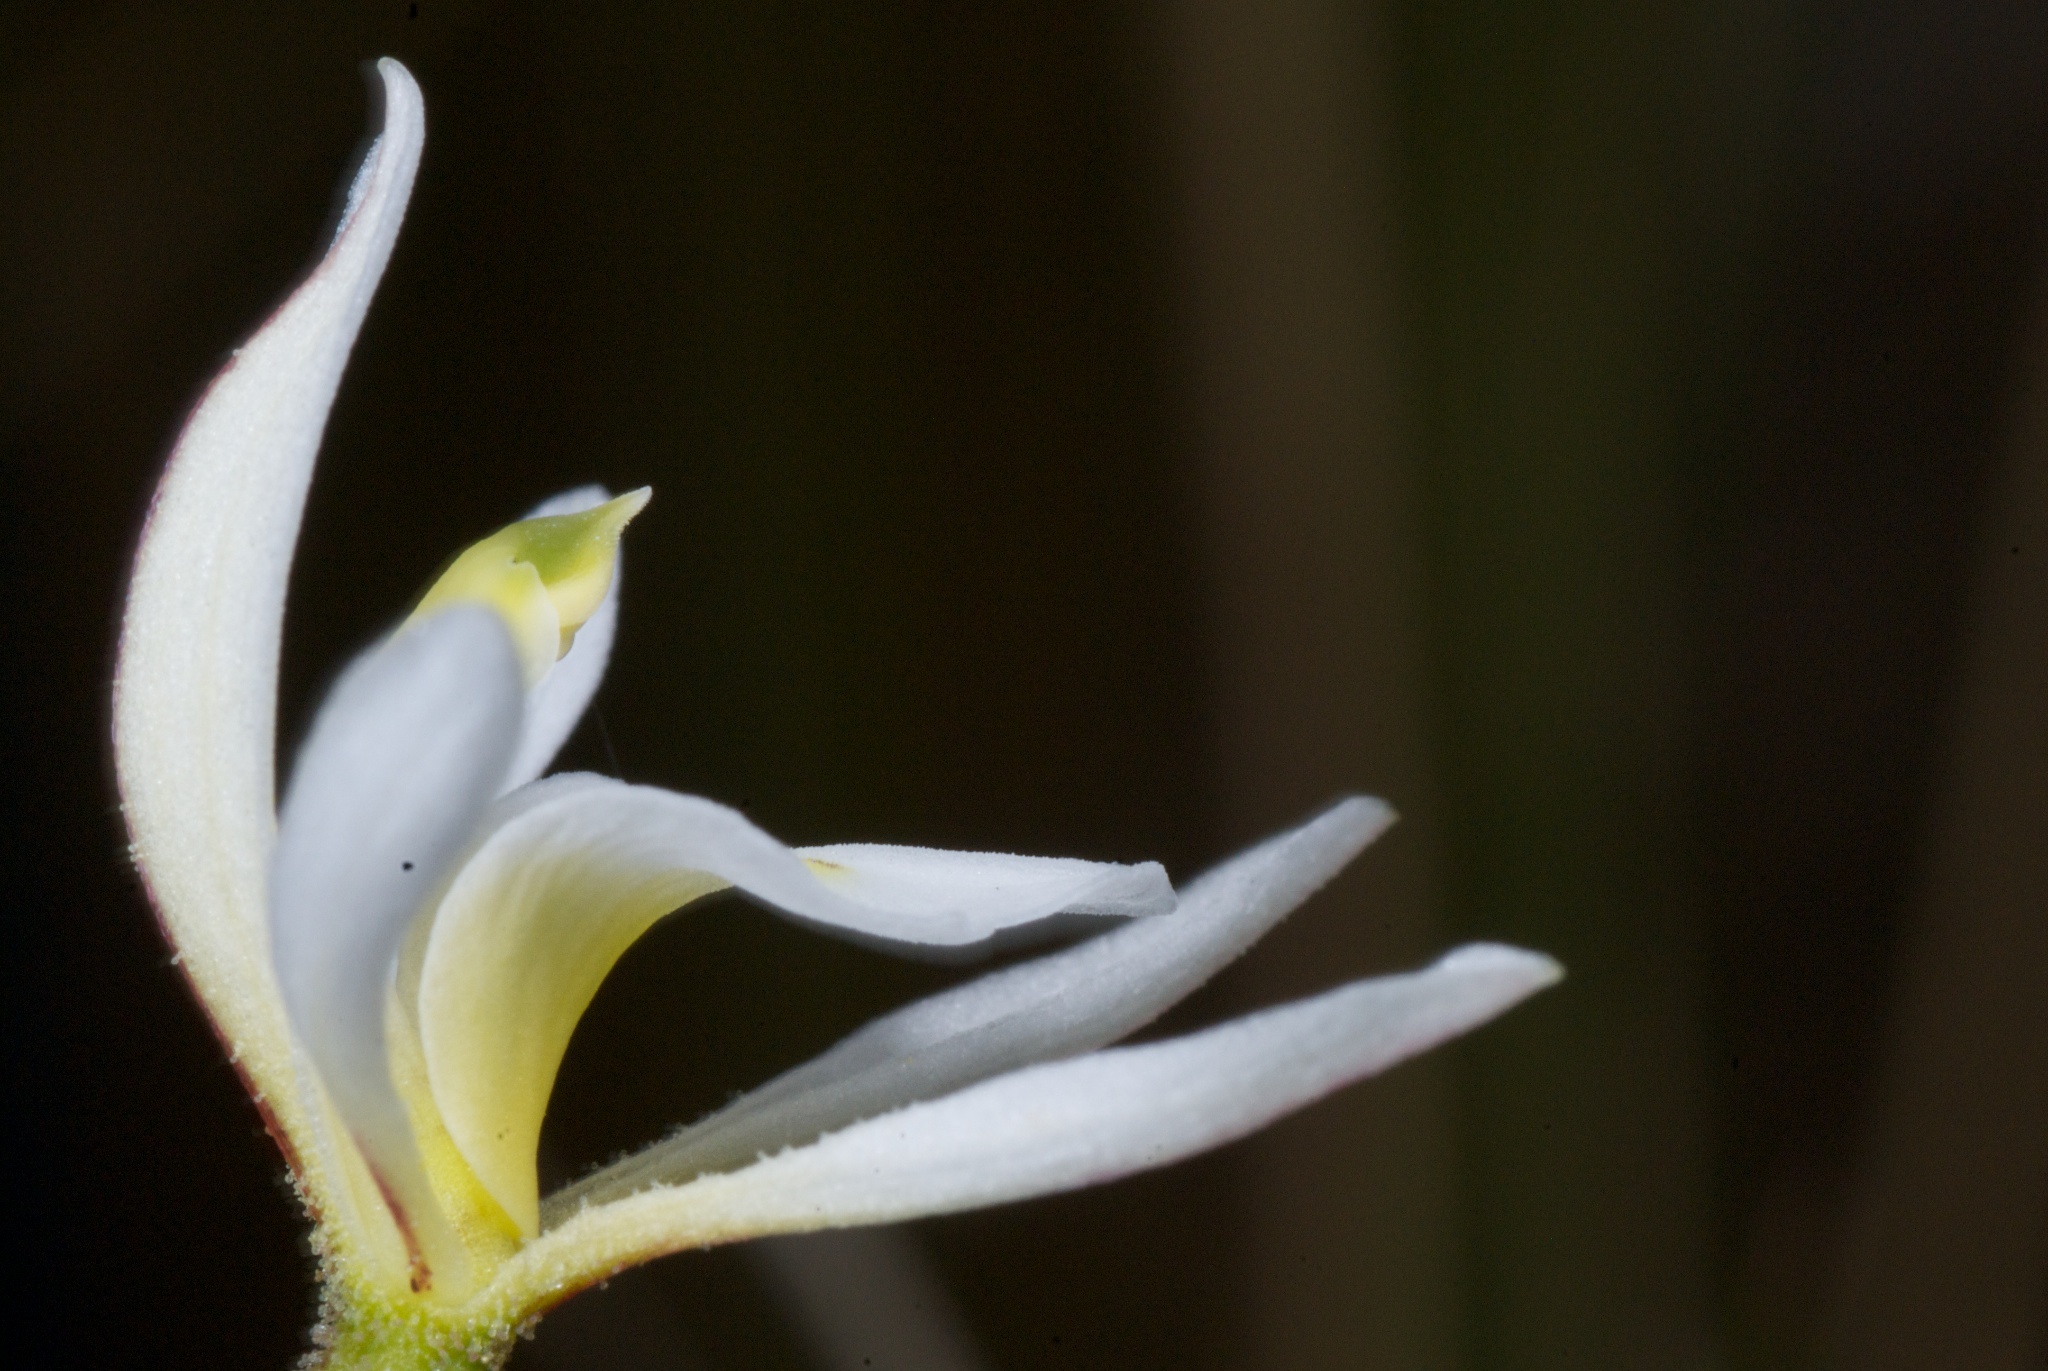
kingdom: Plantae
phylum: Tracheophyta
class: Liliopsida
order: Asparagales
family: Orchidaceae
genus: Aporostylis
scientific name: Aporostylis bifolia
